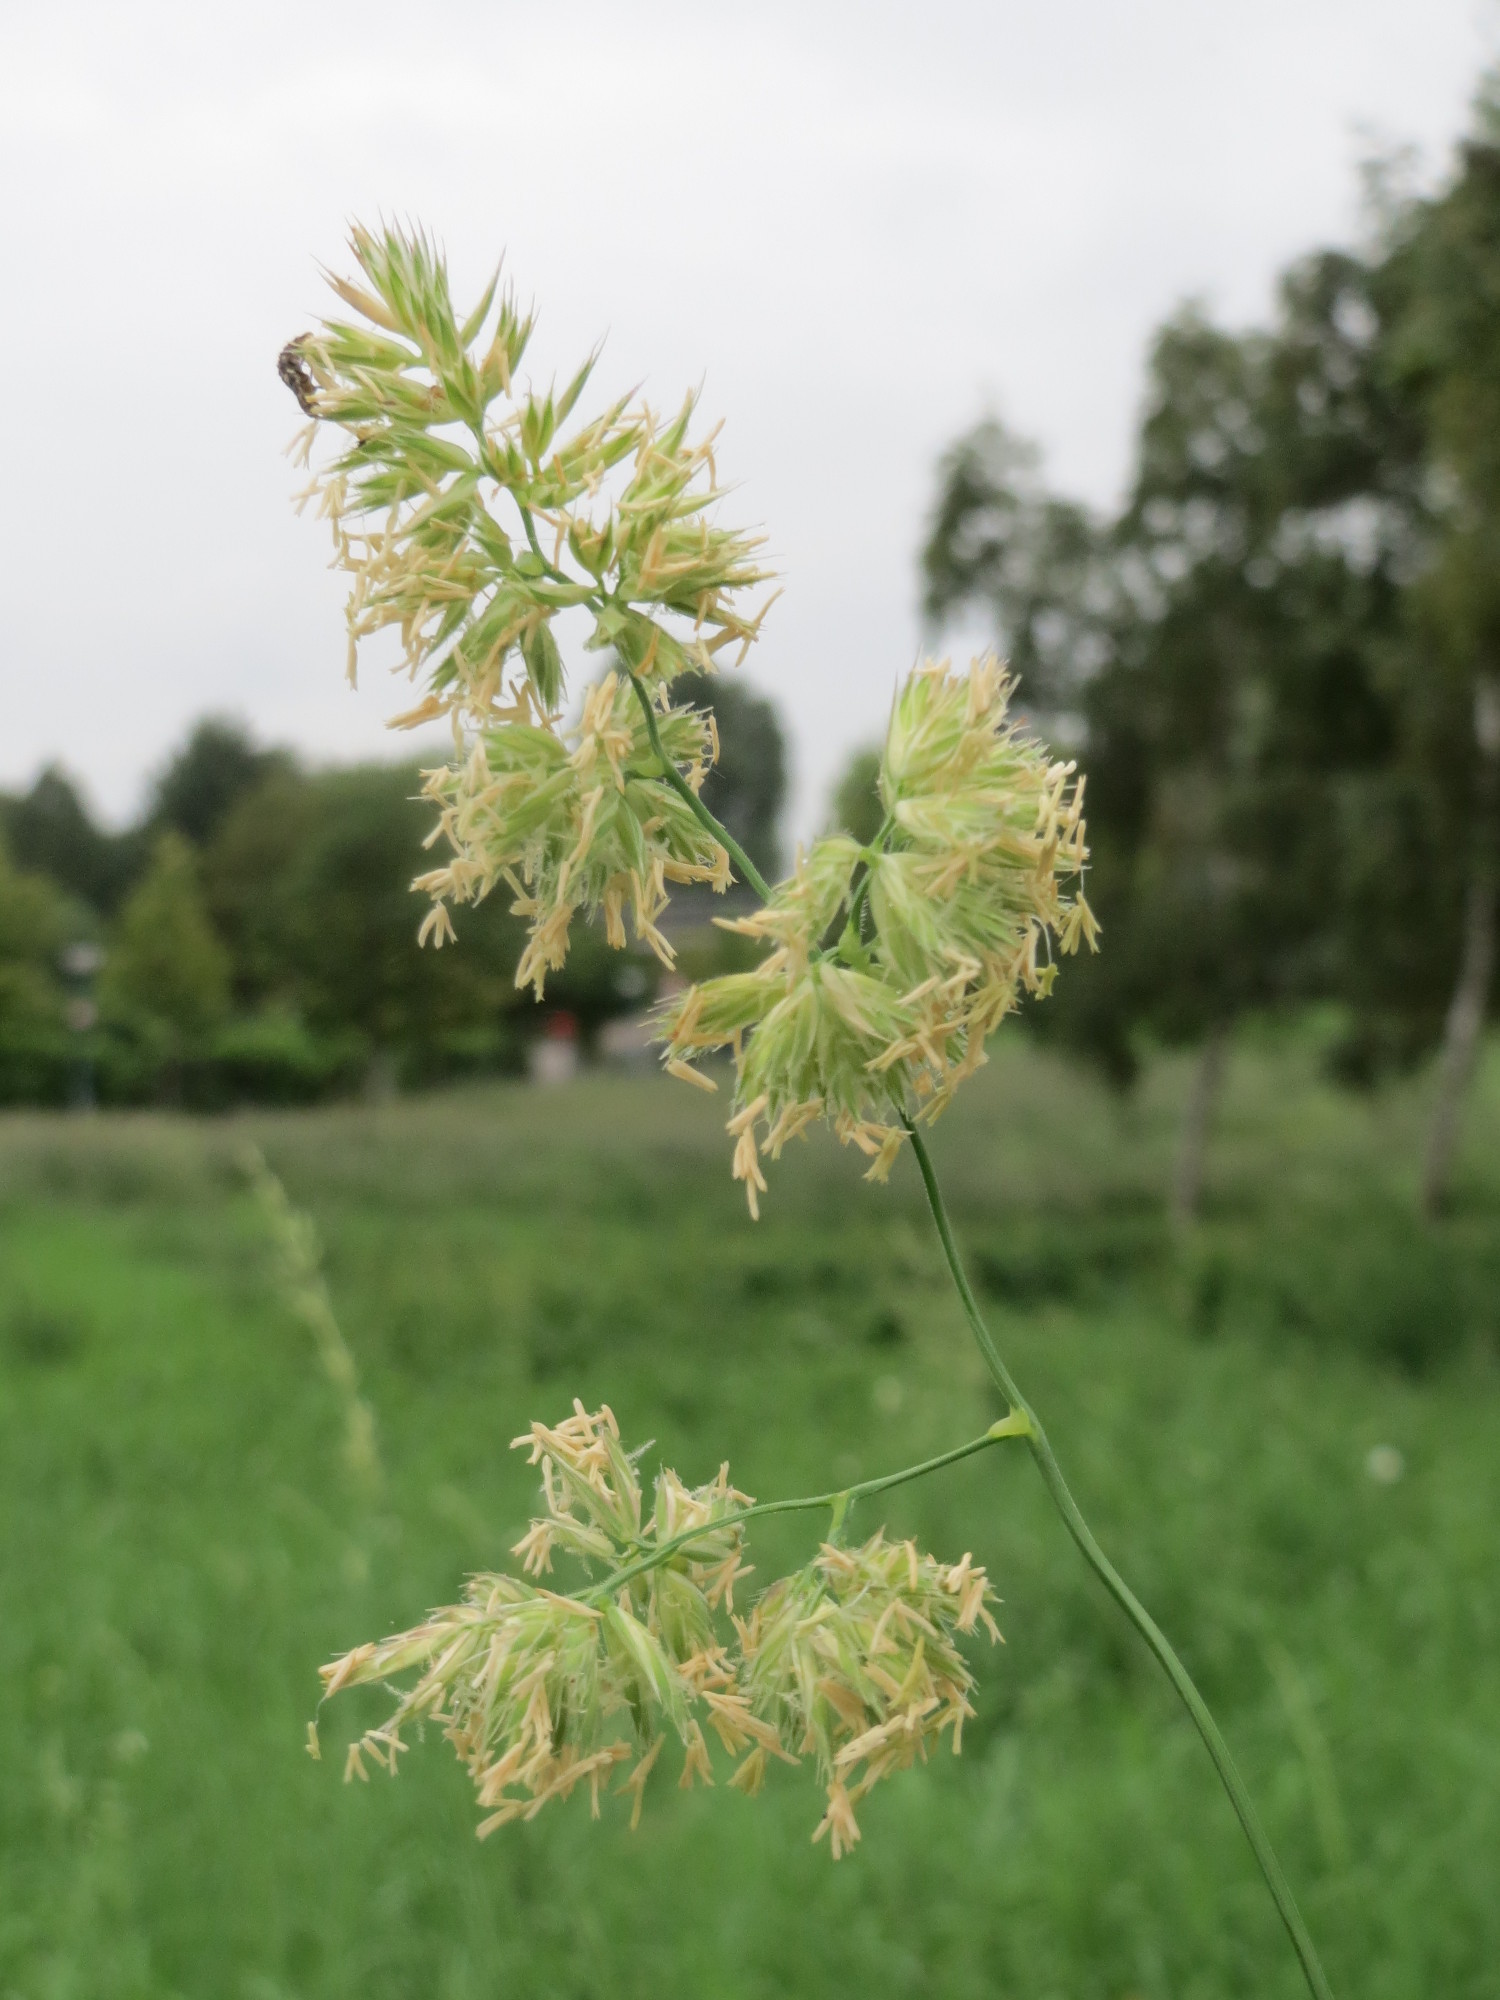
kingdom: Plantae
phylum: Tracheophyta
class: Liliopsida
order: Poales
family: Poaceae
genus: Dactylis
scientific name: Dactylis glomerata
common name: Orchardgrass
